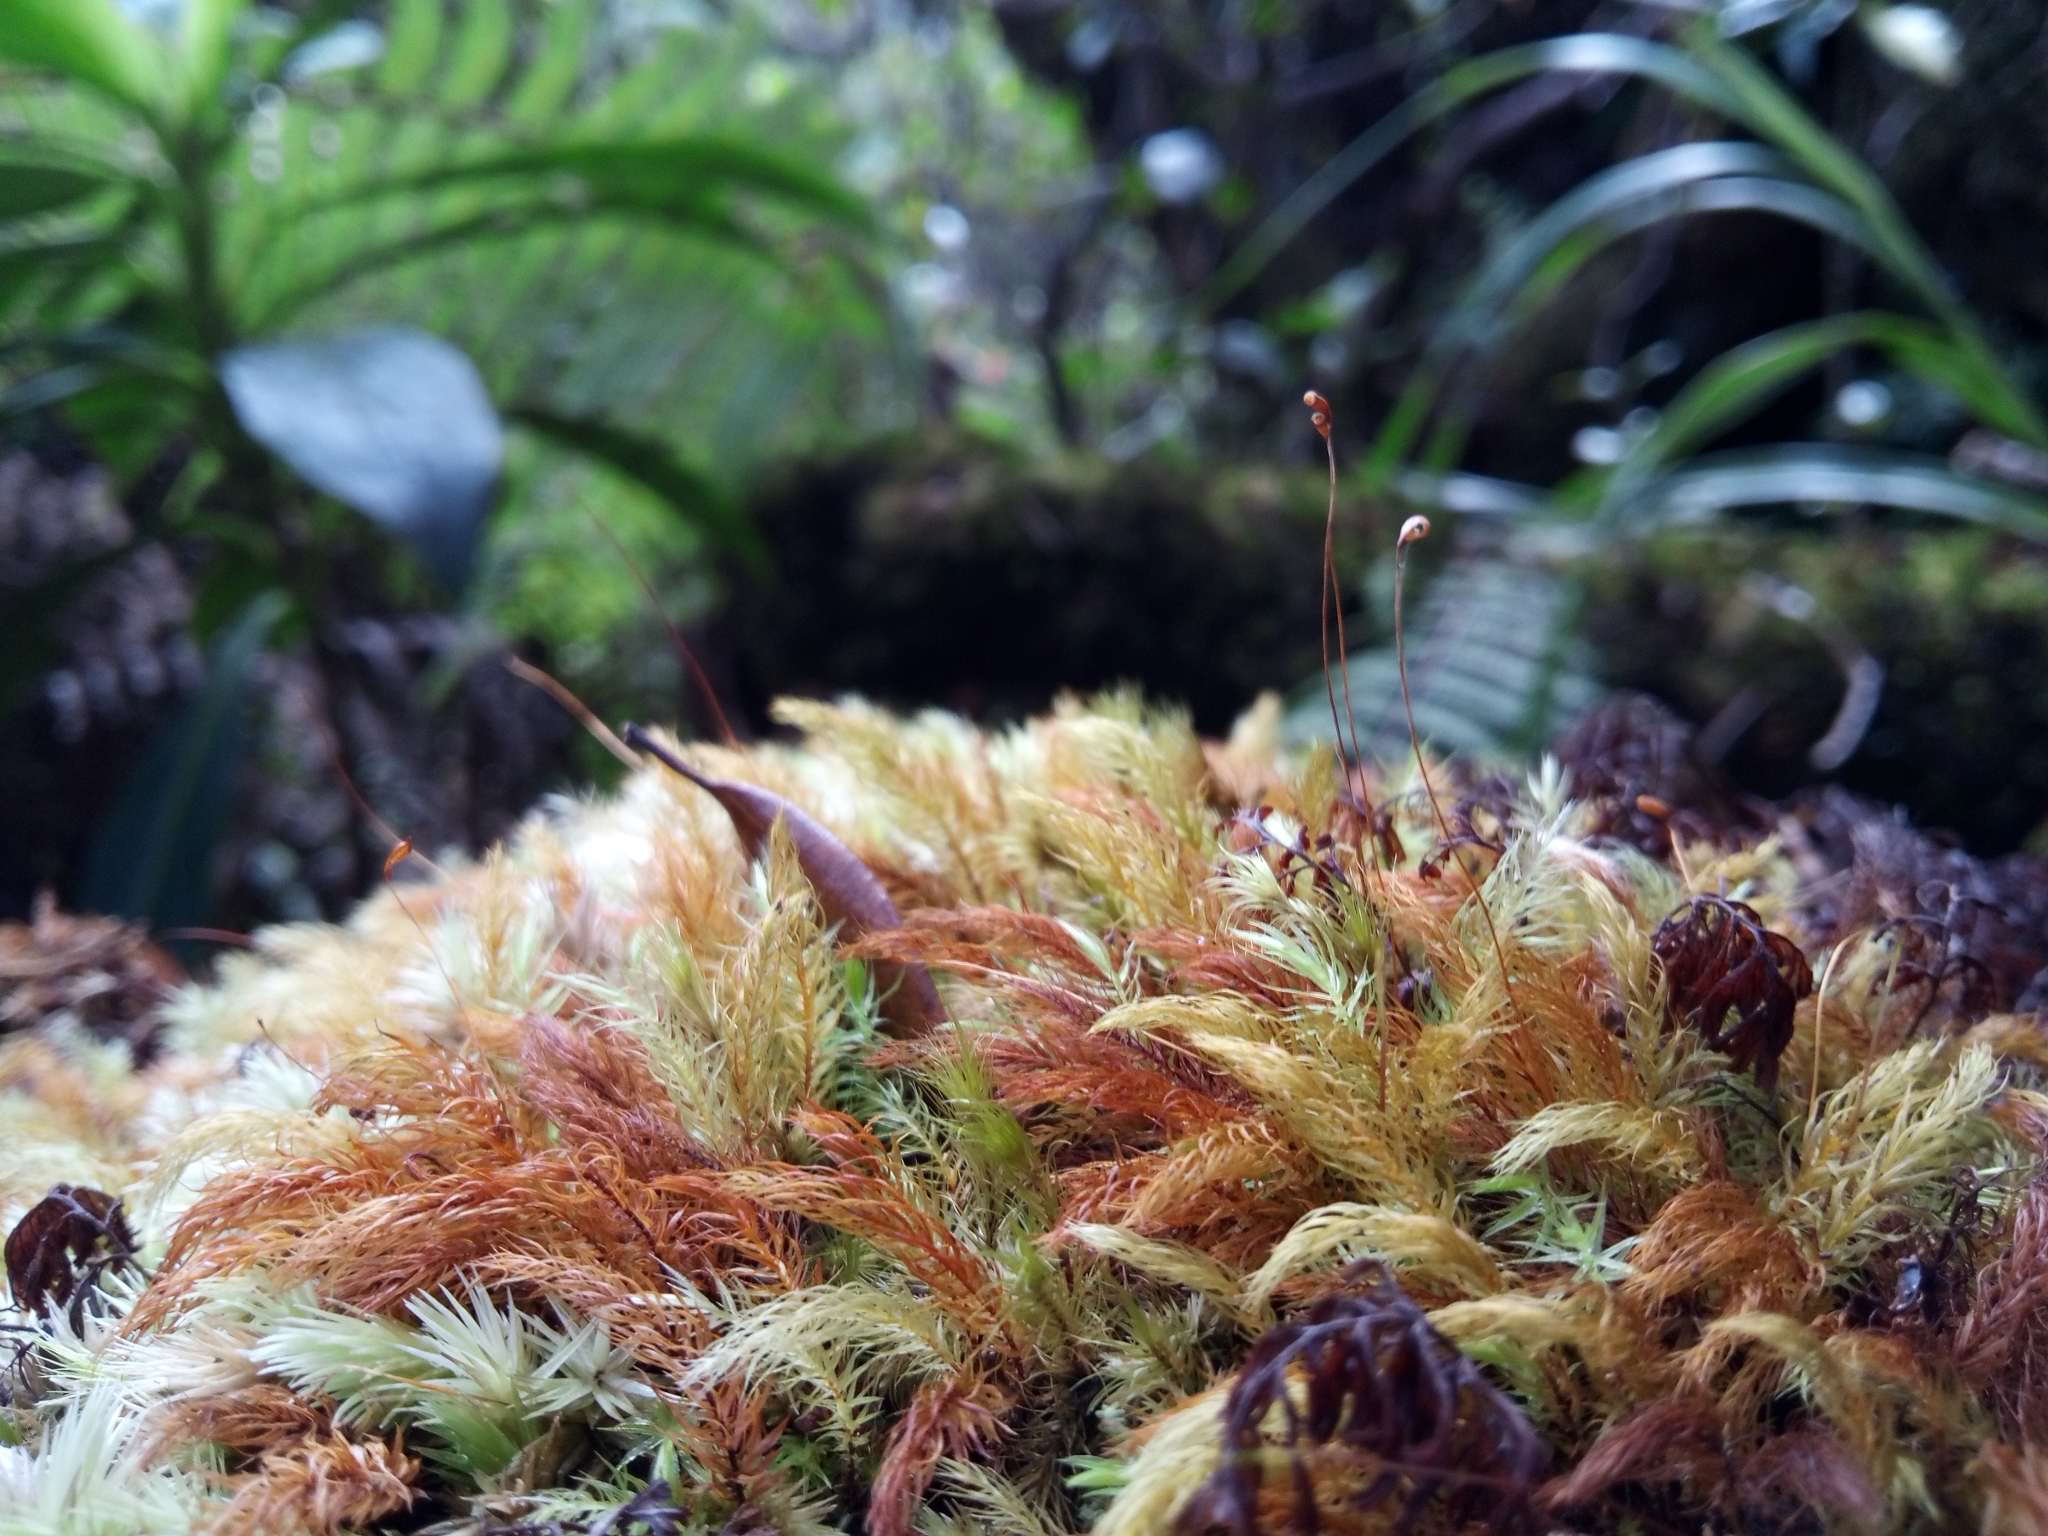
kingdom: Plantae
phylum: Bryophyta
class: Bryopsida
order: Rhizogoniales
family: Calomniaceae
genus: Pyrrhobryum
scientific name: Pyrrhobryum spiniforme
